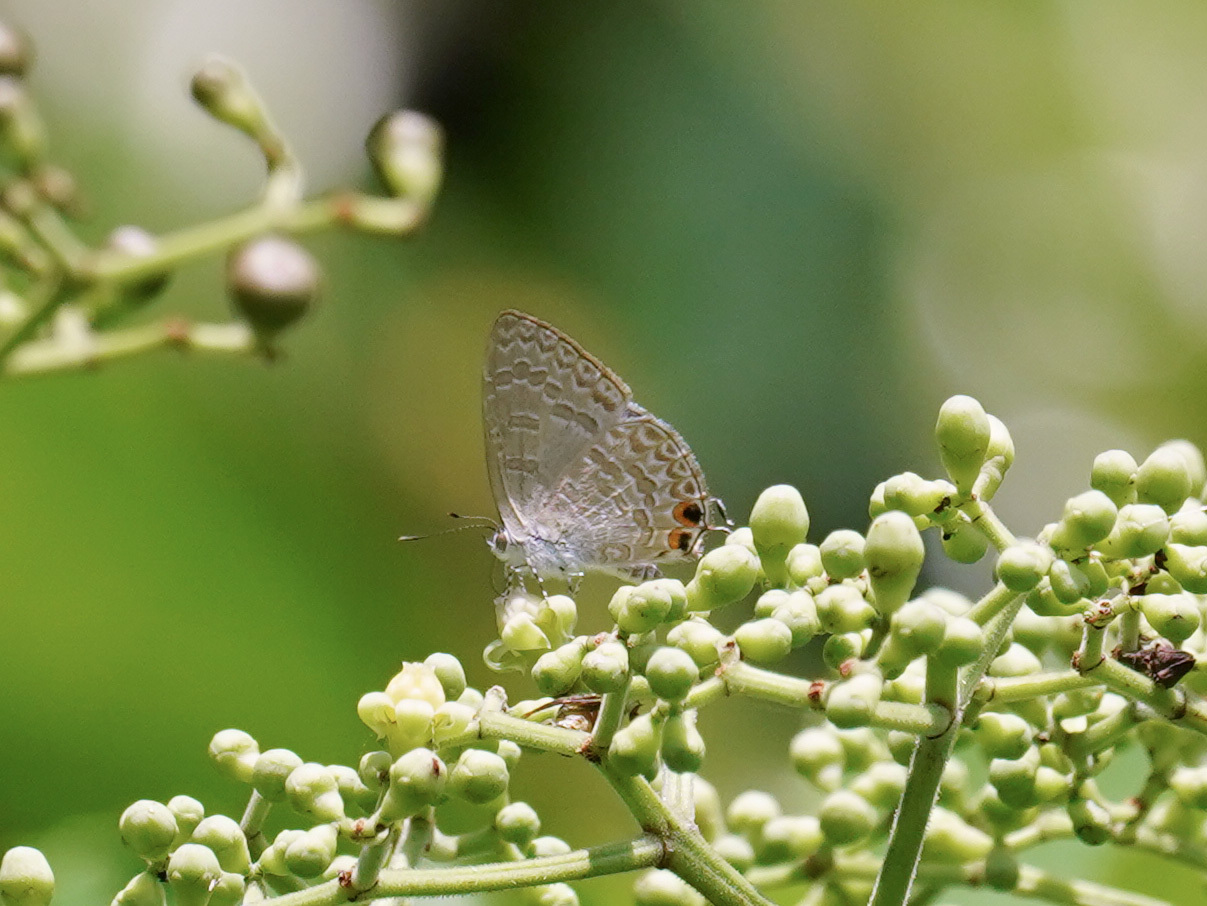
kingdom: Animalia
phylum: Arthropoda
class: Insecta
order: Lepidoptera
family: Lycaenidae
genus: Catopyrops
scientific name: Catopyrops ancyra
